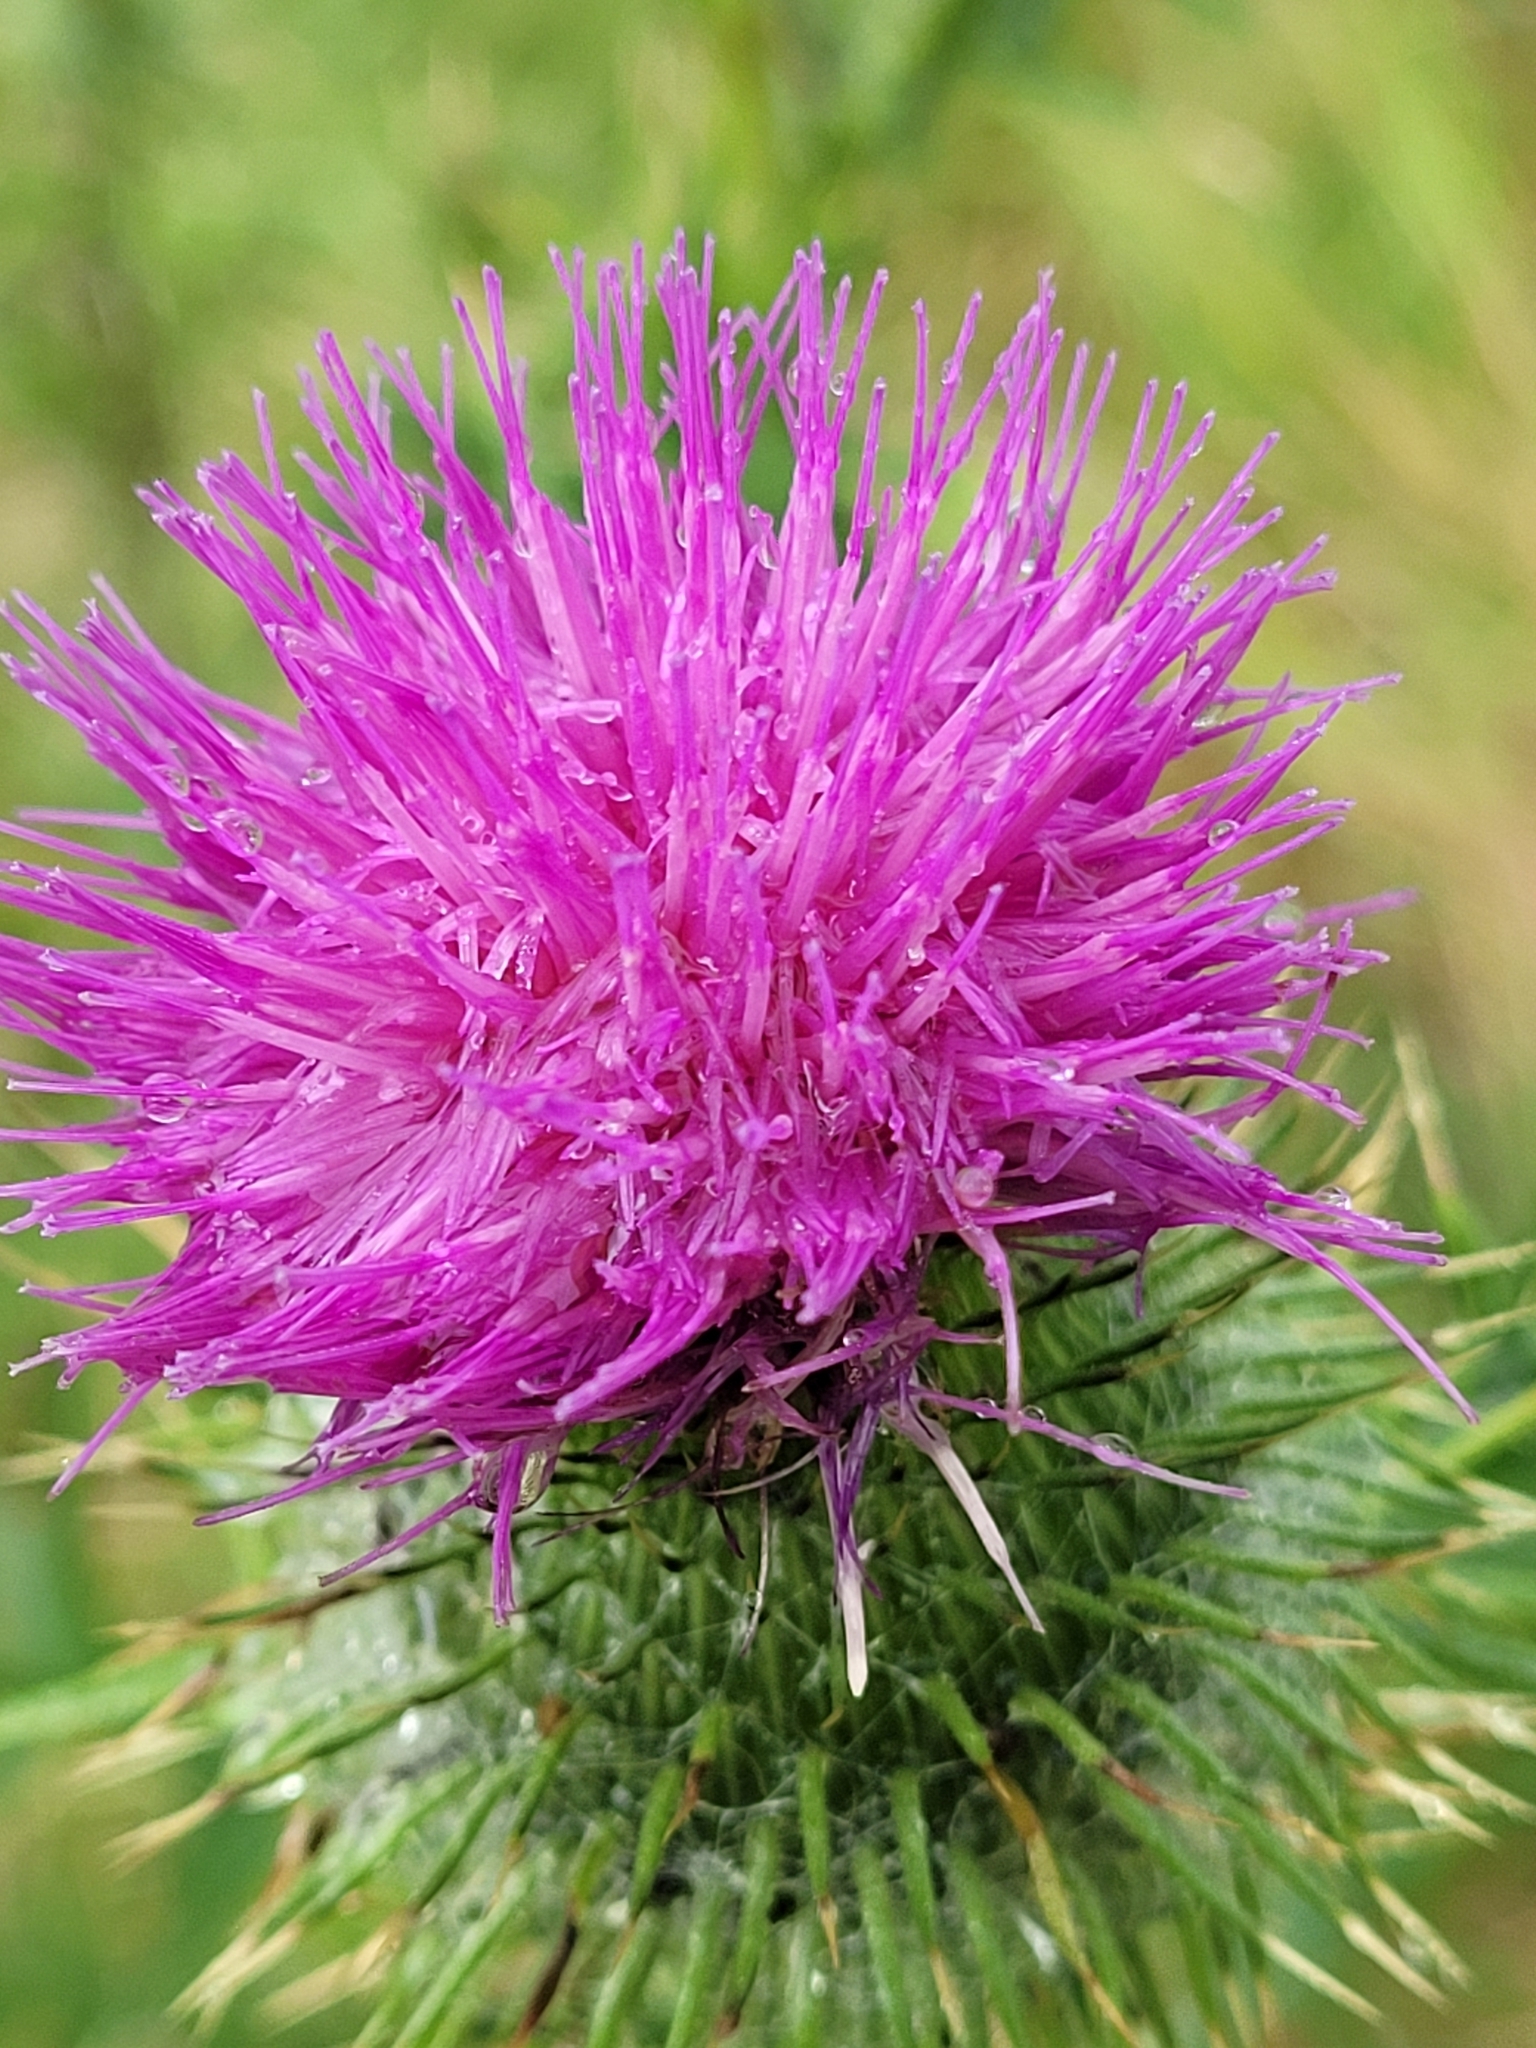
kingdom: Plantae
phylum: Tracheophyta
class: Magnoliopsida
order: Asterales
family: Asteraceae
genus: Cirsium
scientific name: Cirsium vulgare
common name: Bull thistle
